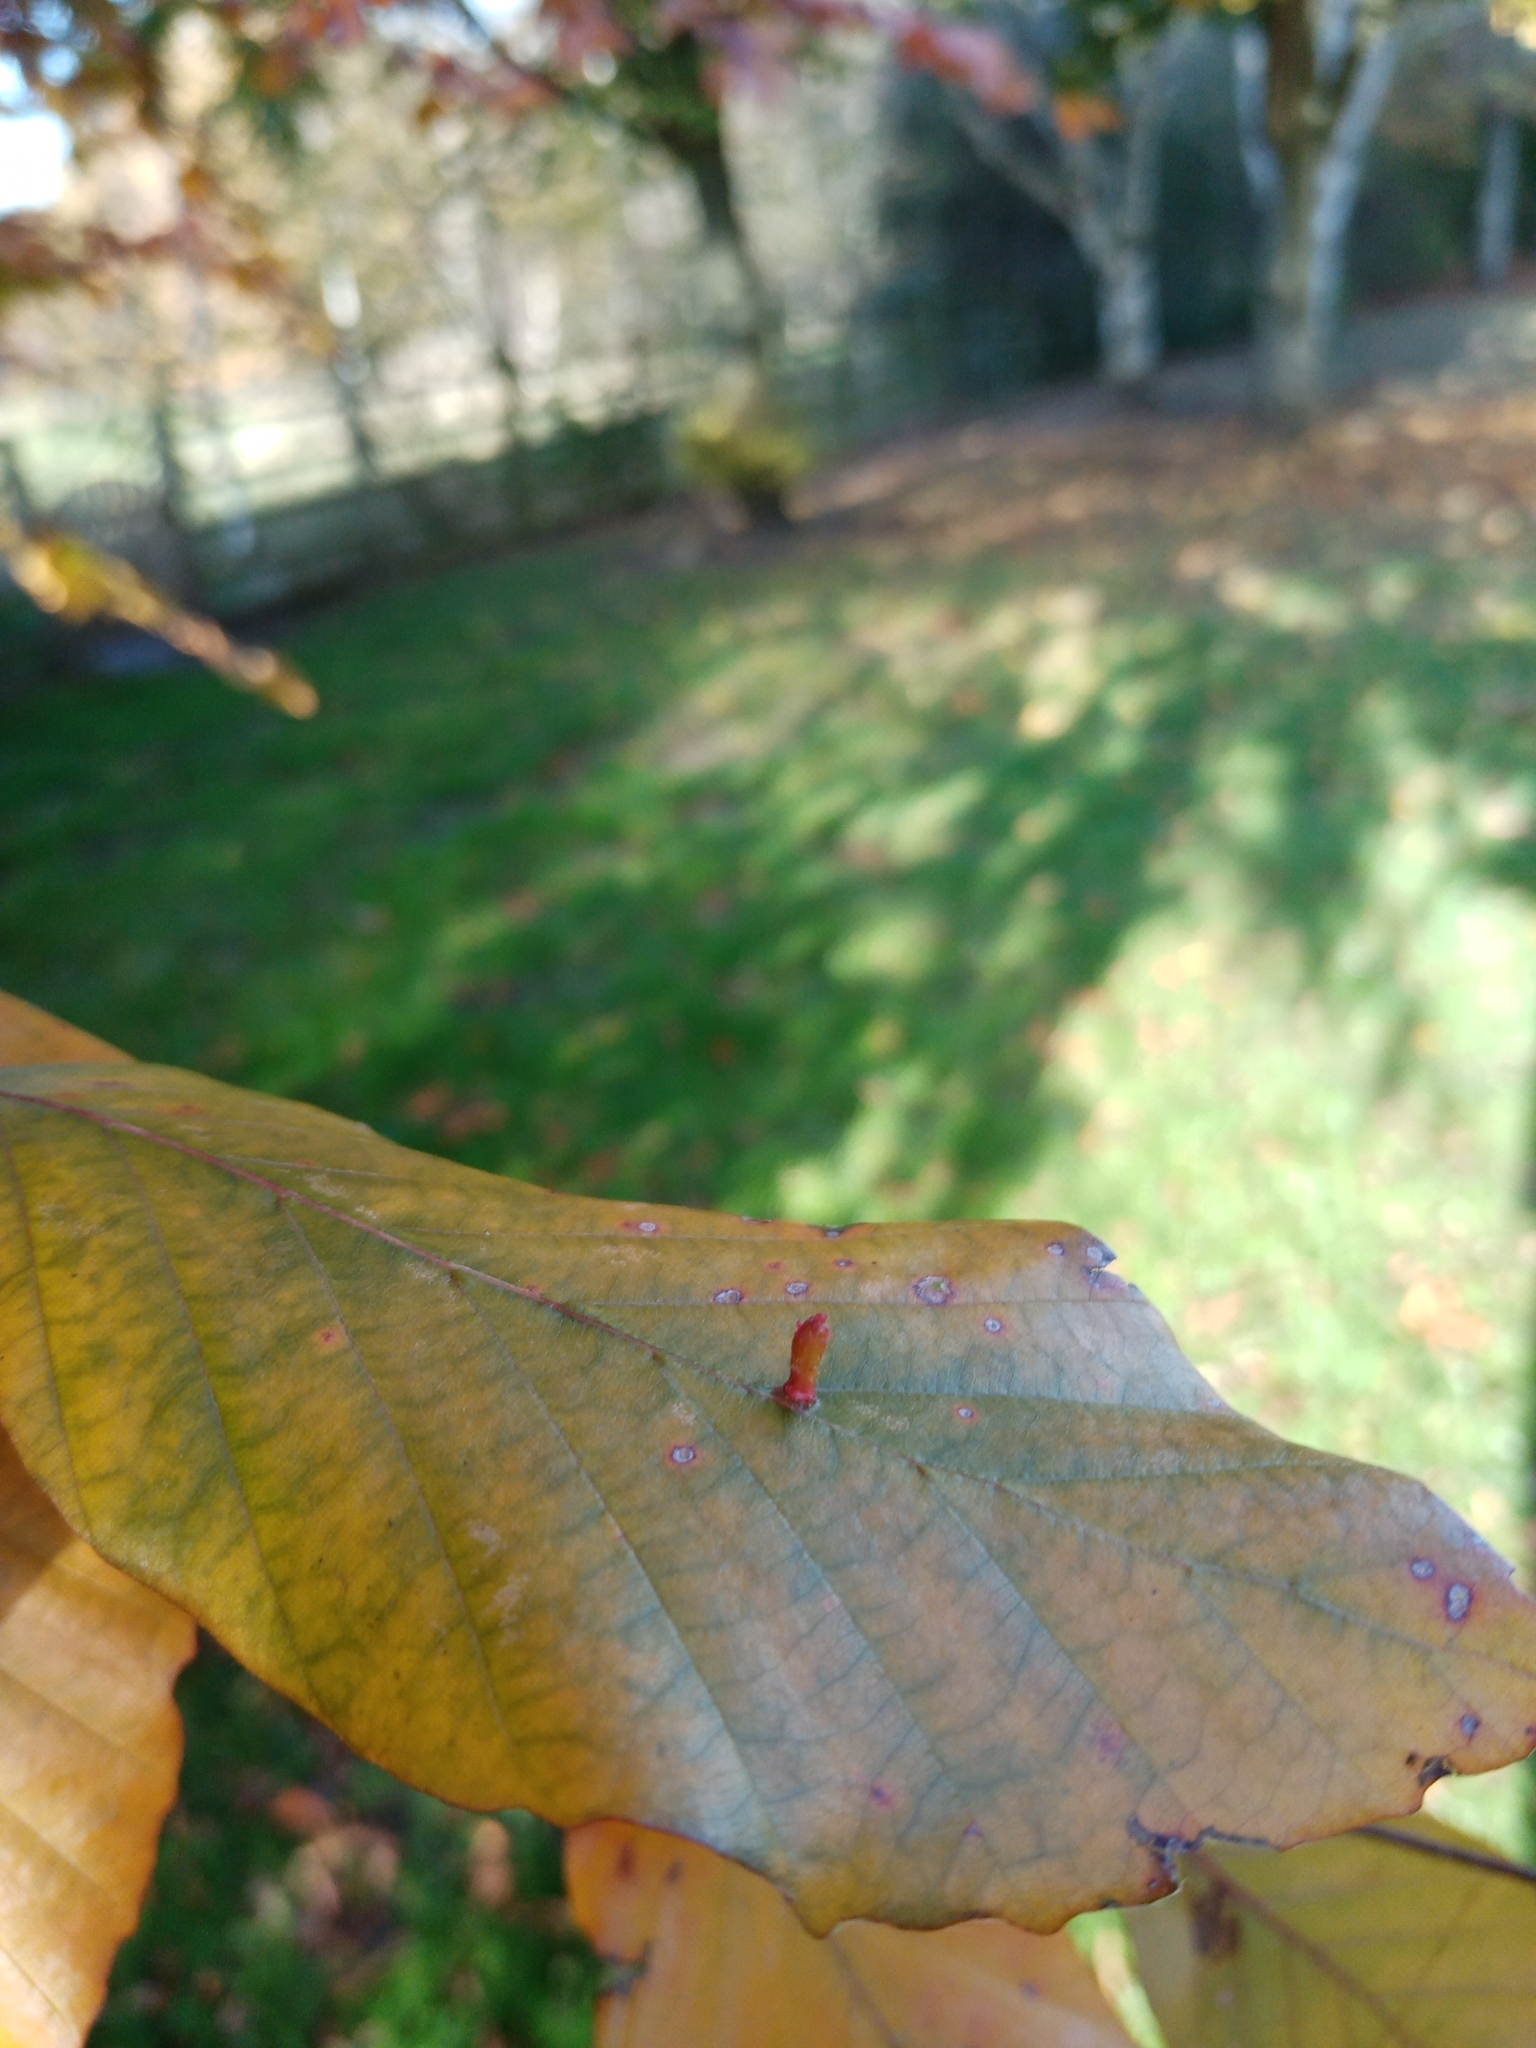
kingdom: Animalia
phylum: Arthropoda
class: Arachnida
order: Trombidiformes
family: Eriophyidae
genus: Eriophyes
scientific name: Eriophyes tiliae
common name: Red nail gall mite
